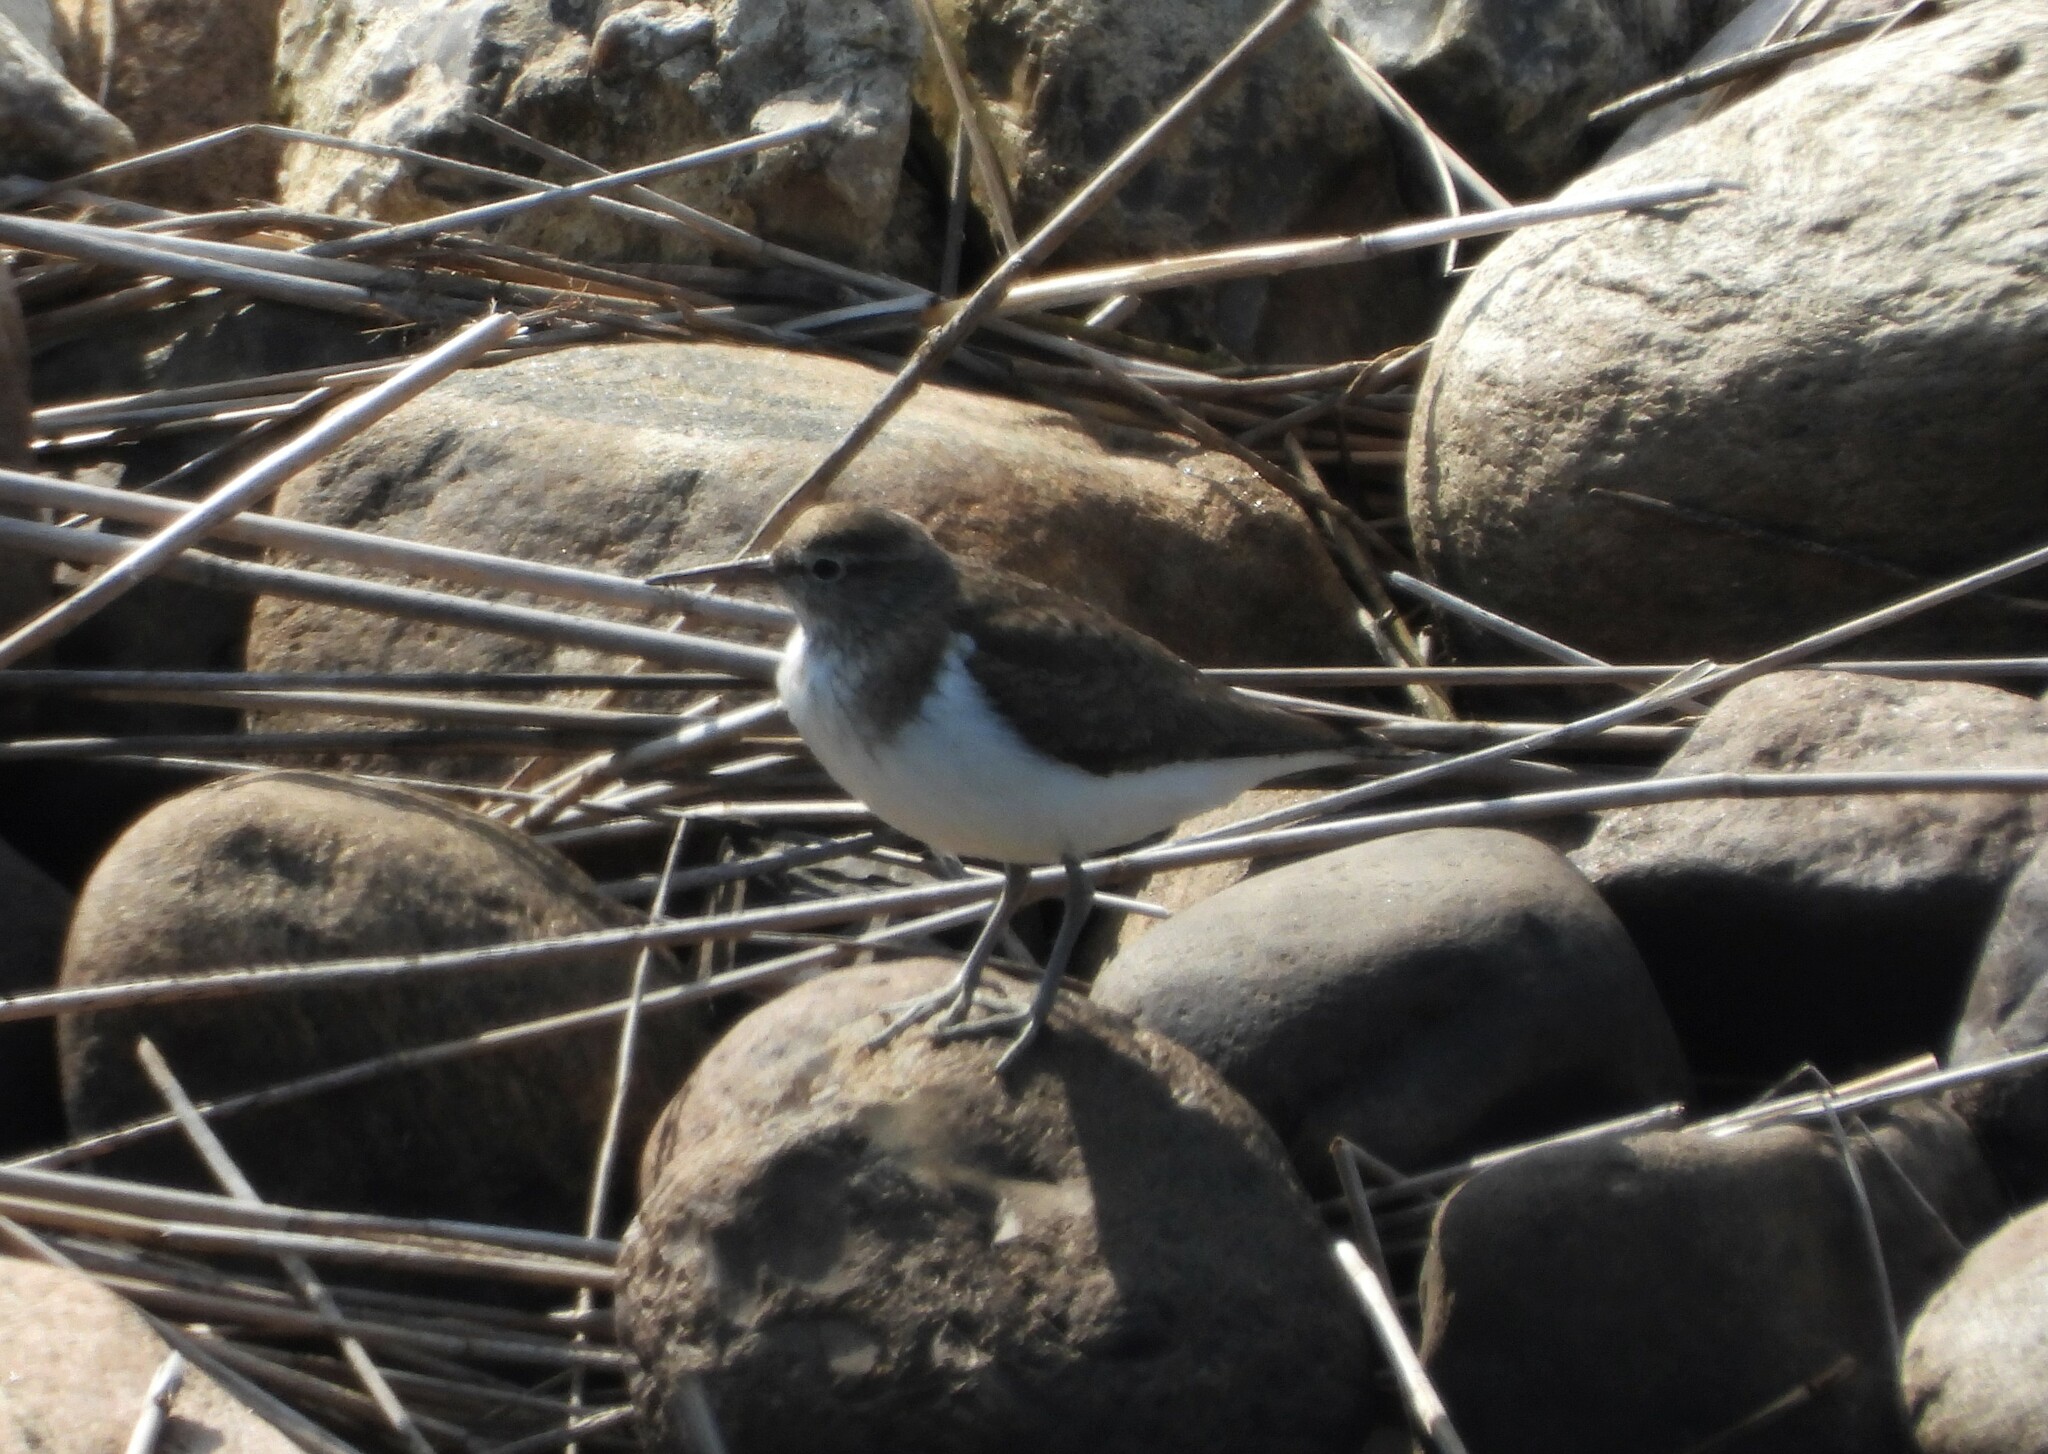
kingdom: Animalia
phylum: Chordata
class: Aves
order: Charadriiformes
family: Scolopacidae
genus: Actitis
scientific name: Actitis hypoleucos
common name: Common sandpiper
